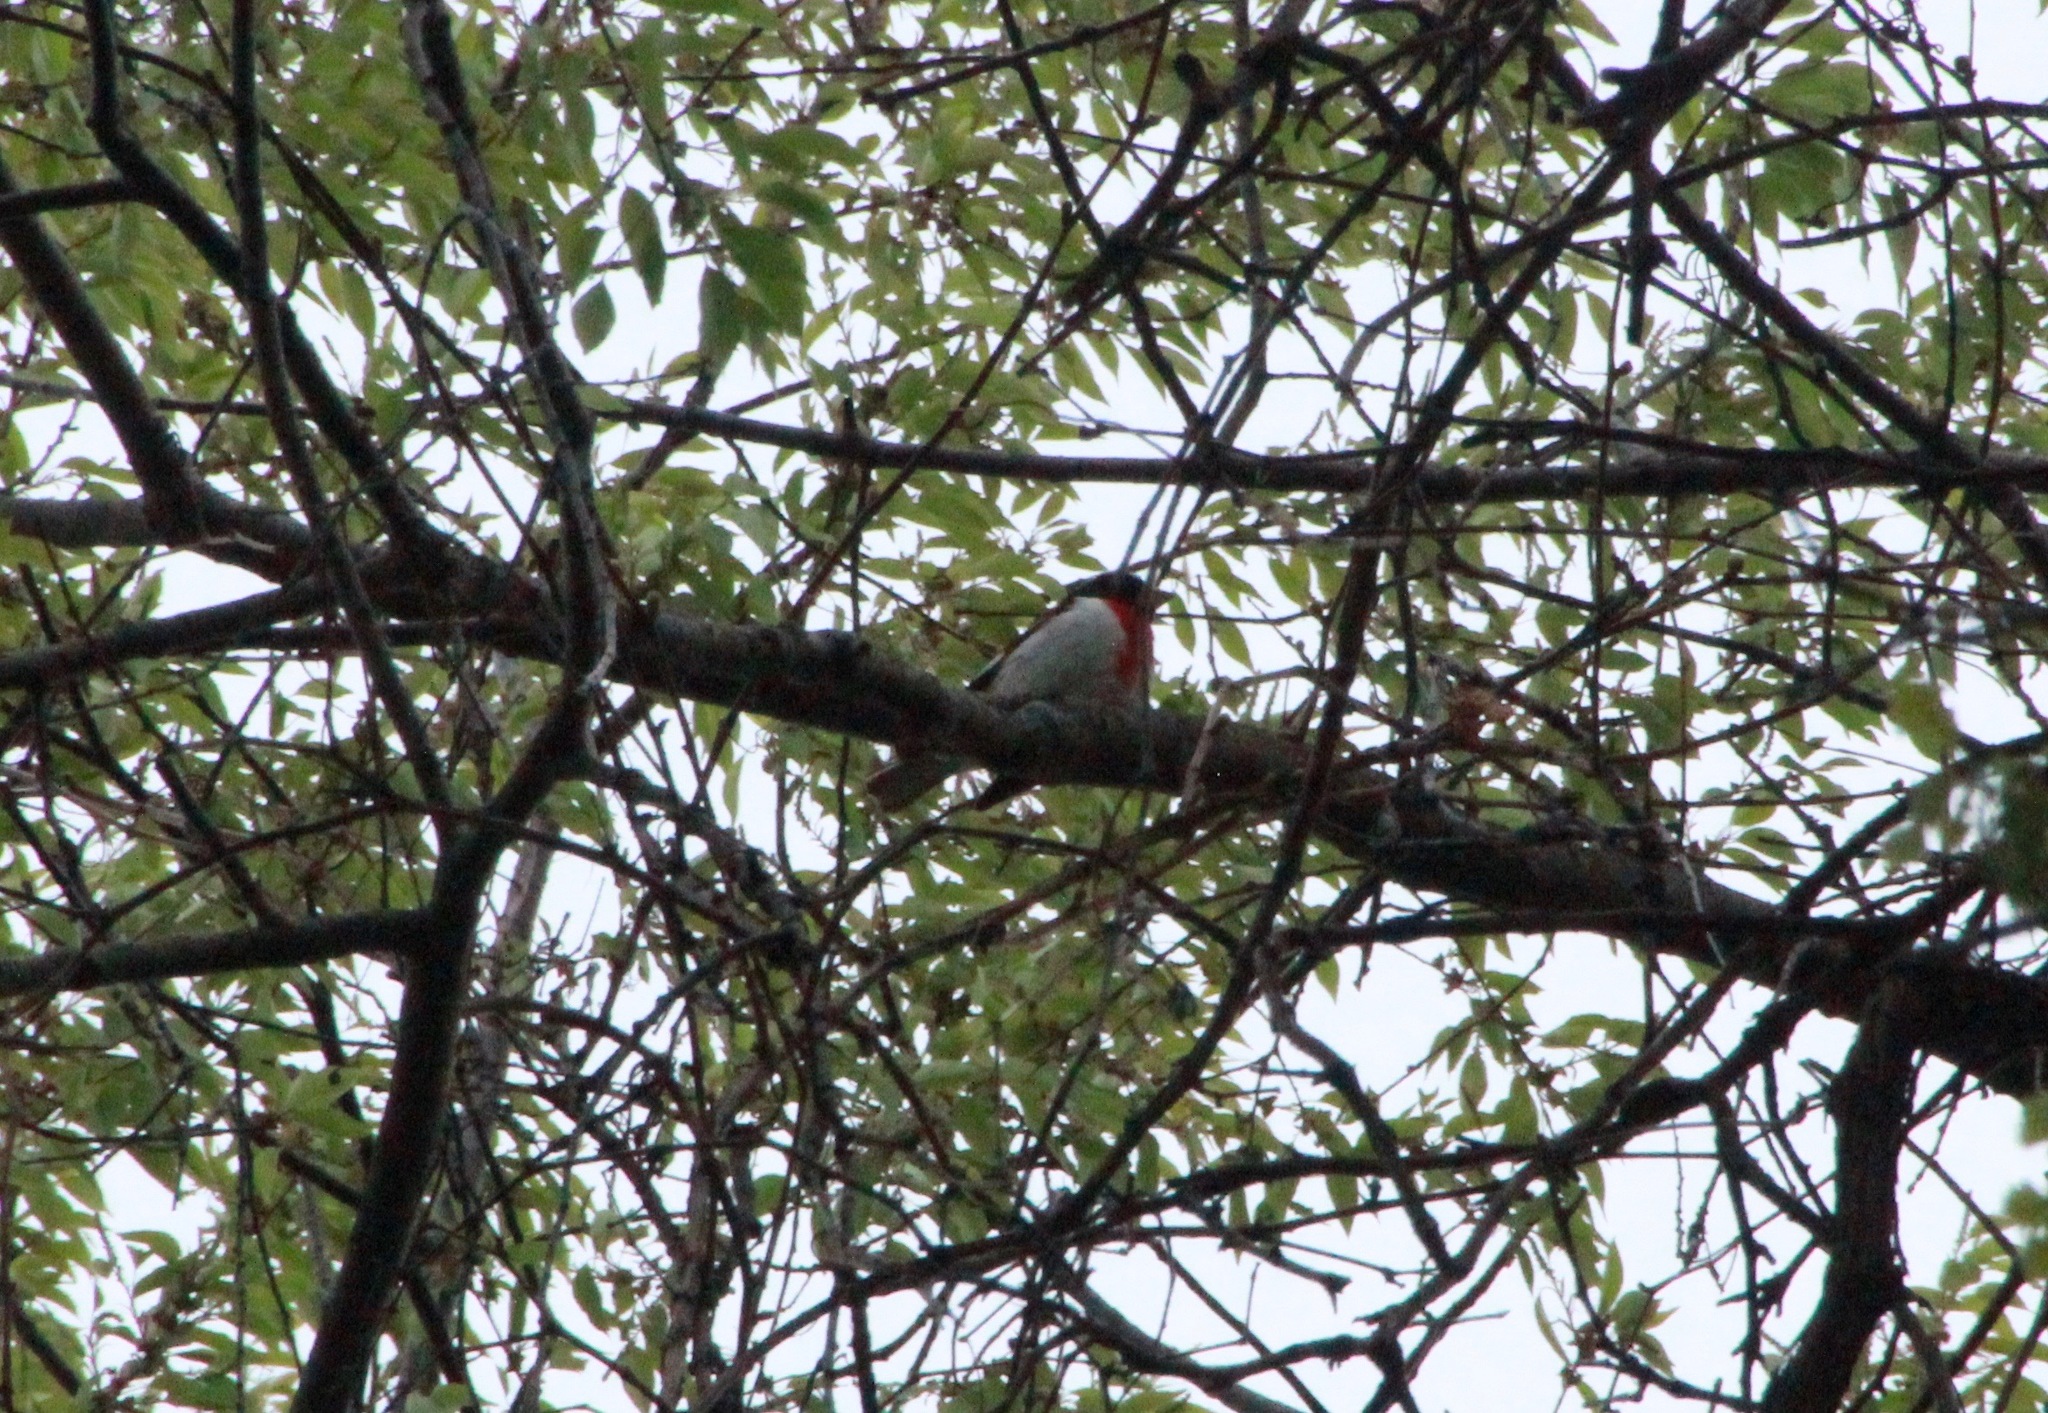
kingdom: Animalia
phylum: Chordata
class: Aves
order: Passeriformes
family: Cardinalidae
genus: Pheucticus
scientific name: Pheucticus ludovicianus
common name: Rose-breasted grosbeak
